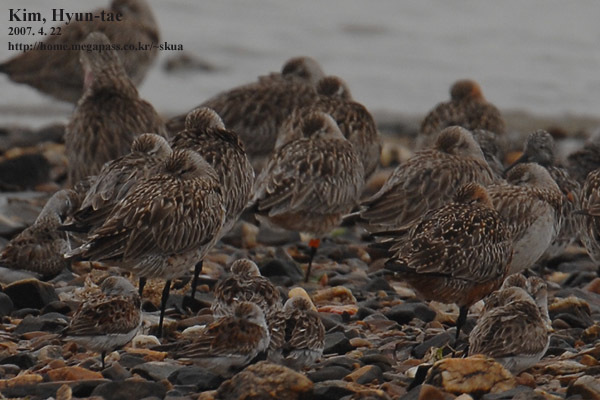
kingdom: Animalia
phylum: Chordata
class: Aves
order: Charadriiformes
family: Scolopacidae
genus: Limosa
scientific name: Limosa lapponica
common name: Bar-tailed godwit
